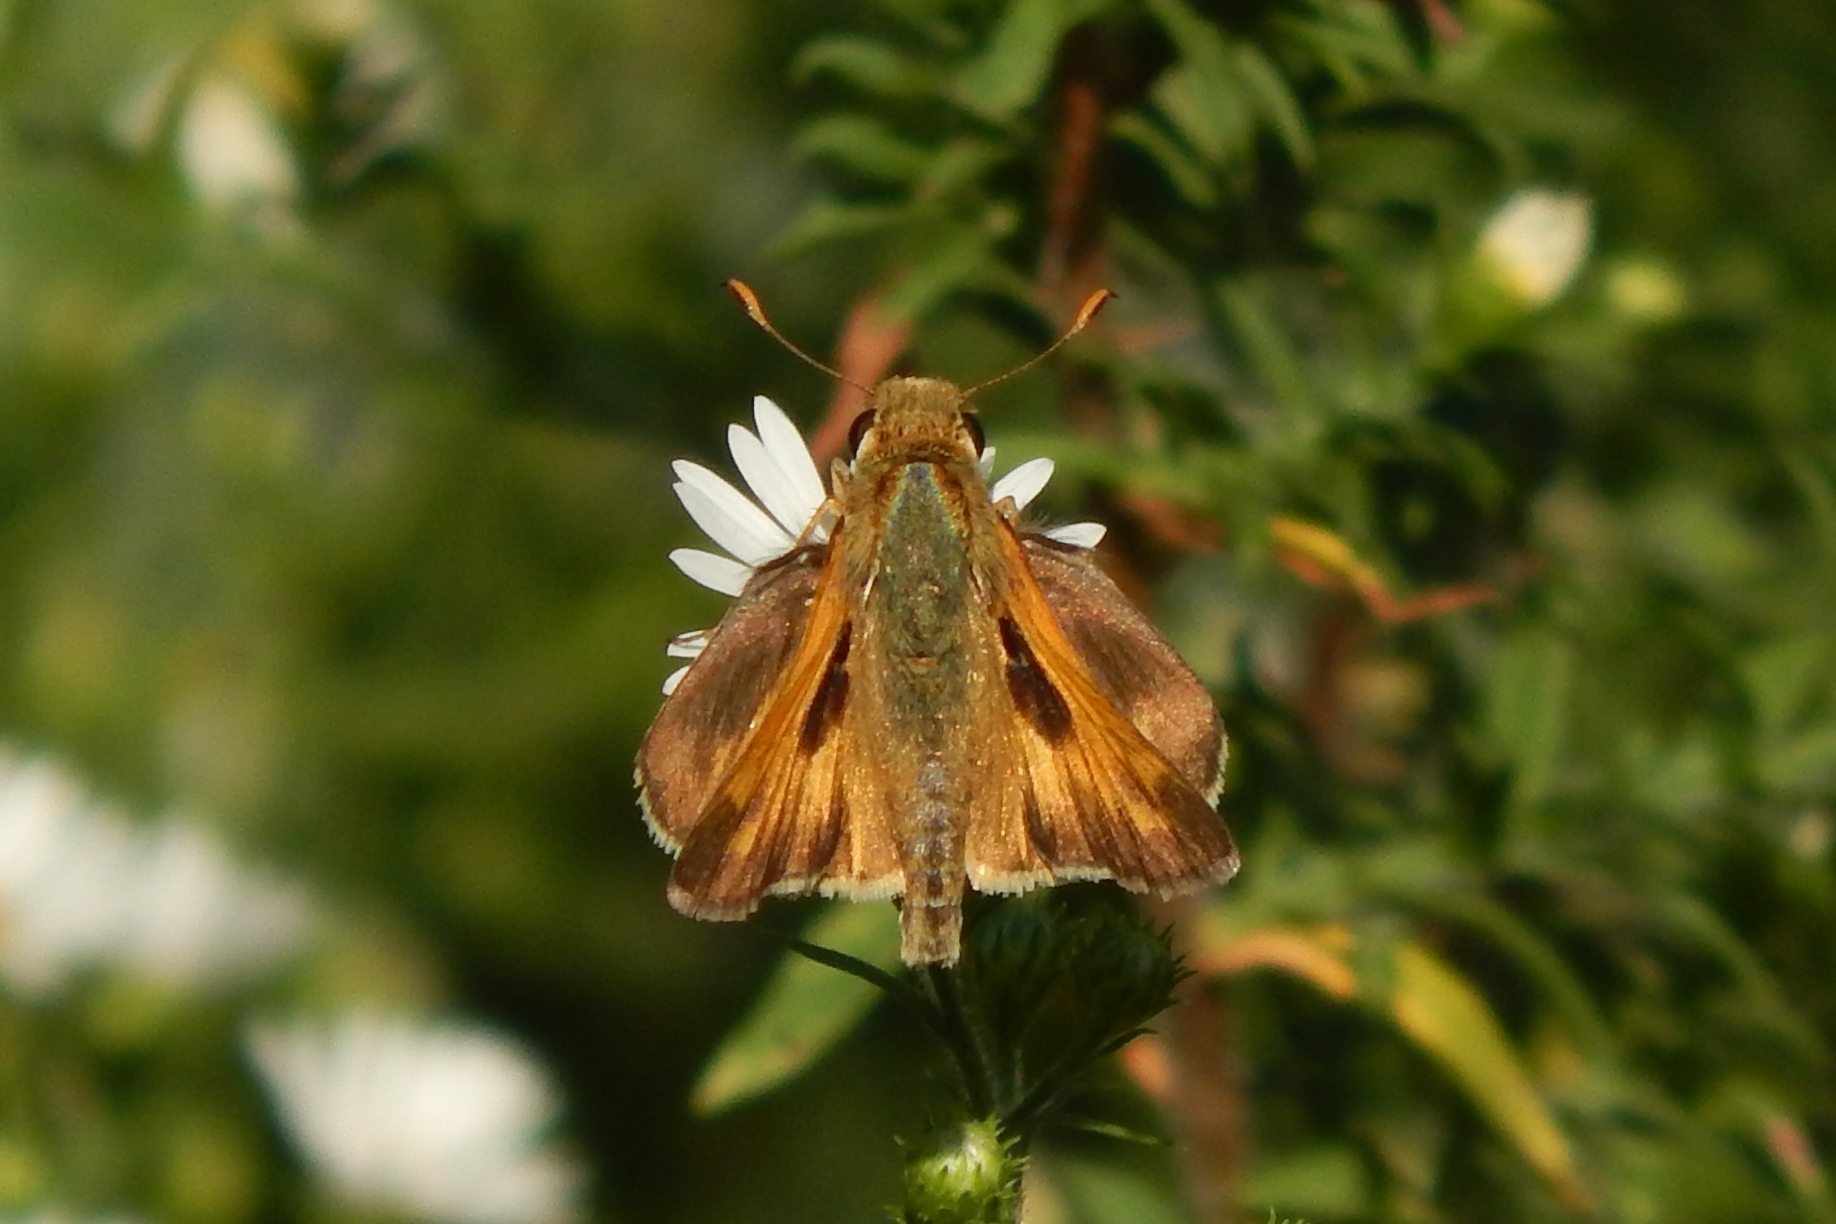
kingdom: Animalia
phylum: Arthropoda
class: Insecta
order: Lepidoptera
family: Hesperiidae
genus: Atalopedes
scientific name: Atalopedes
